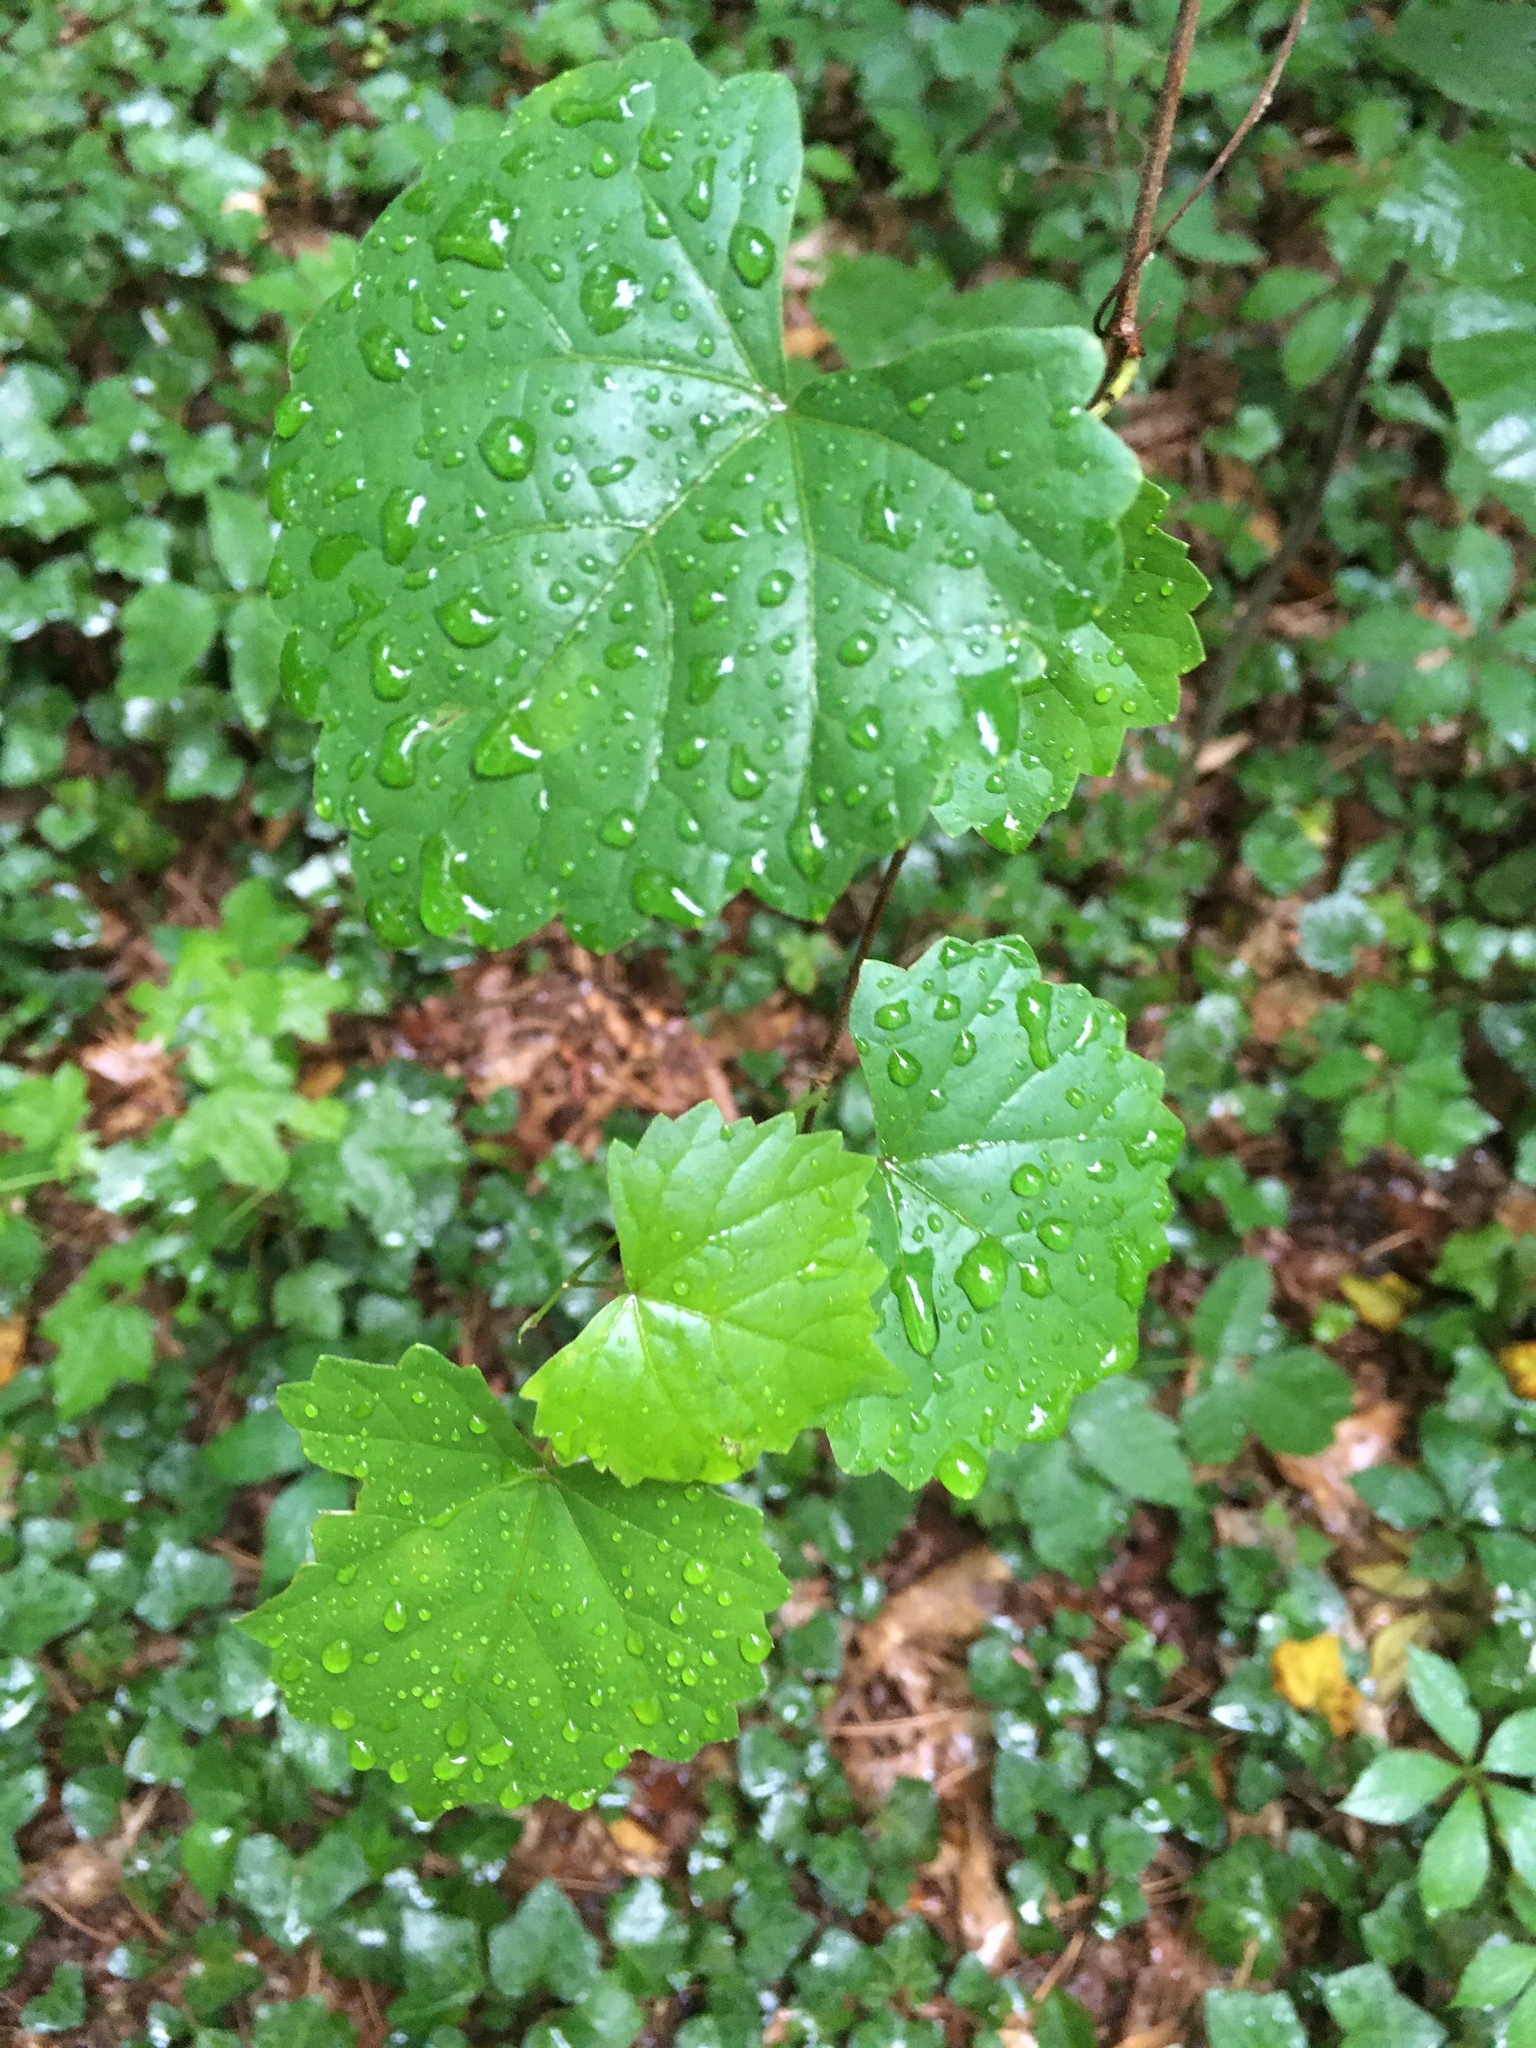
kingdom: Plantae
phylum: Tracheophyta
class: Magnoliopsida
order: Vitales
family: Vitaceae
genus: Vitis
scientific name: Vitis rotundifolia
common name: Muscadine grape
